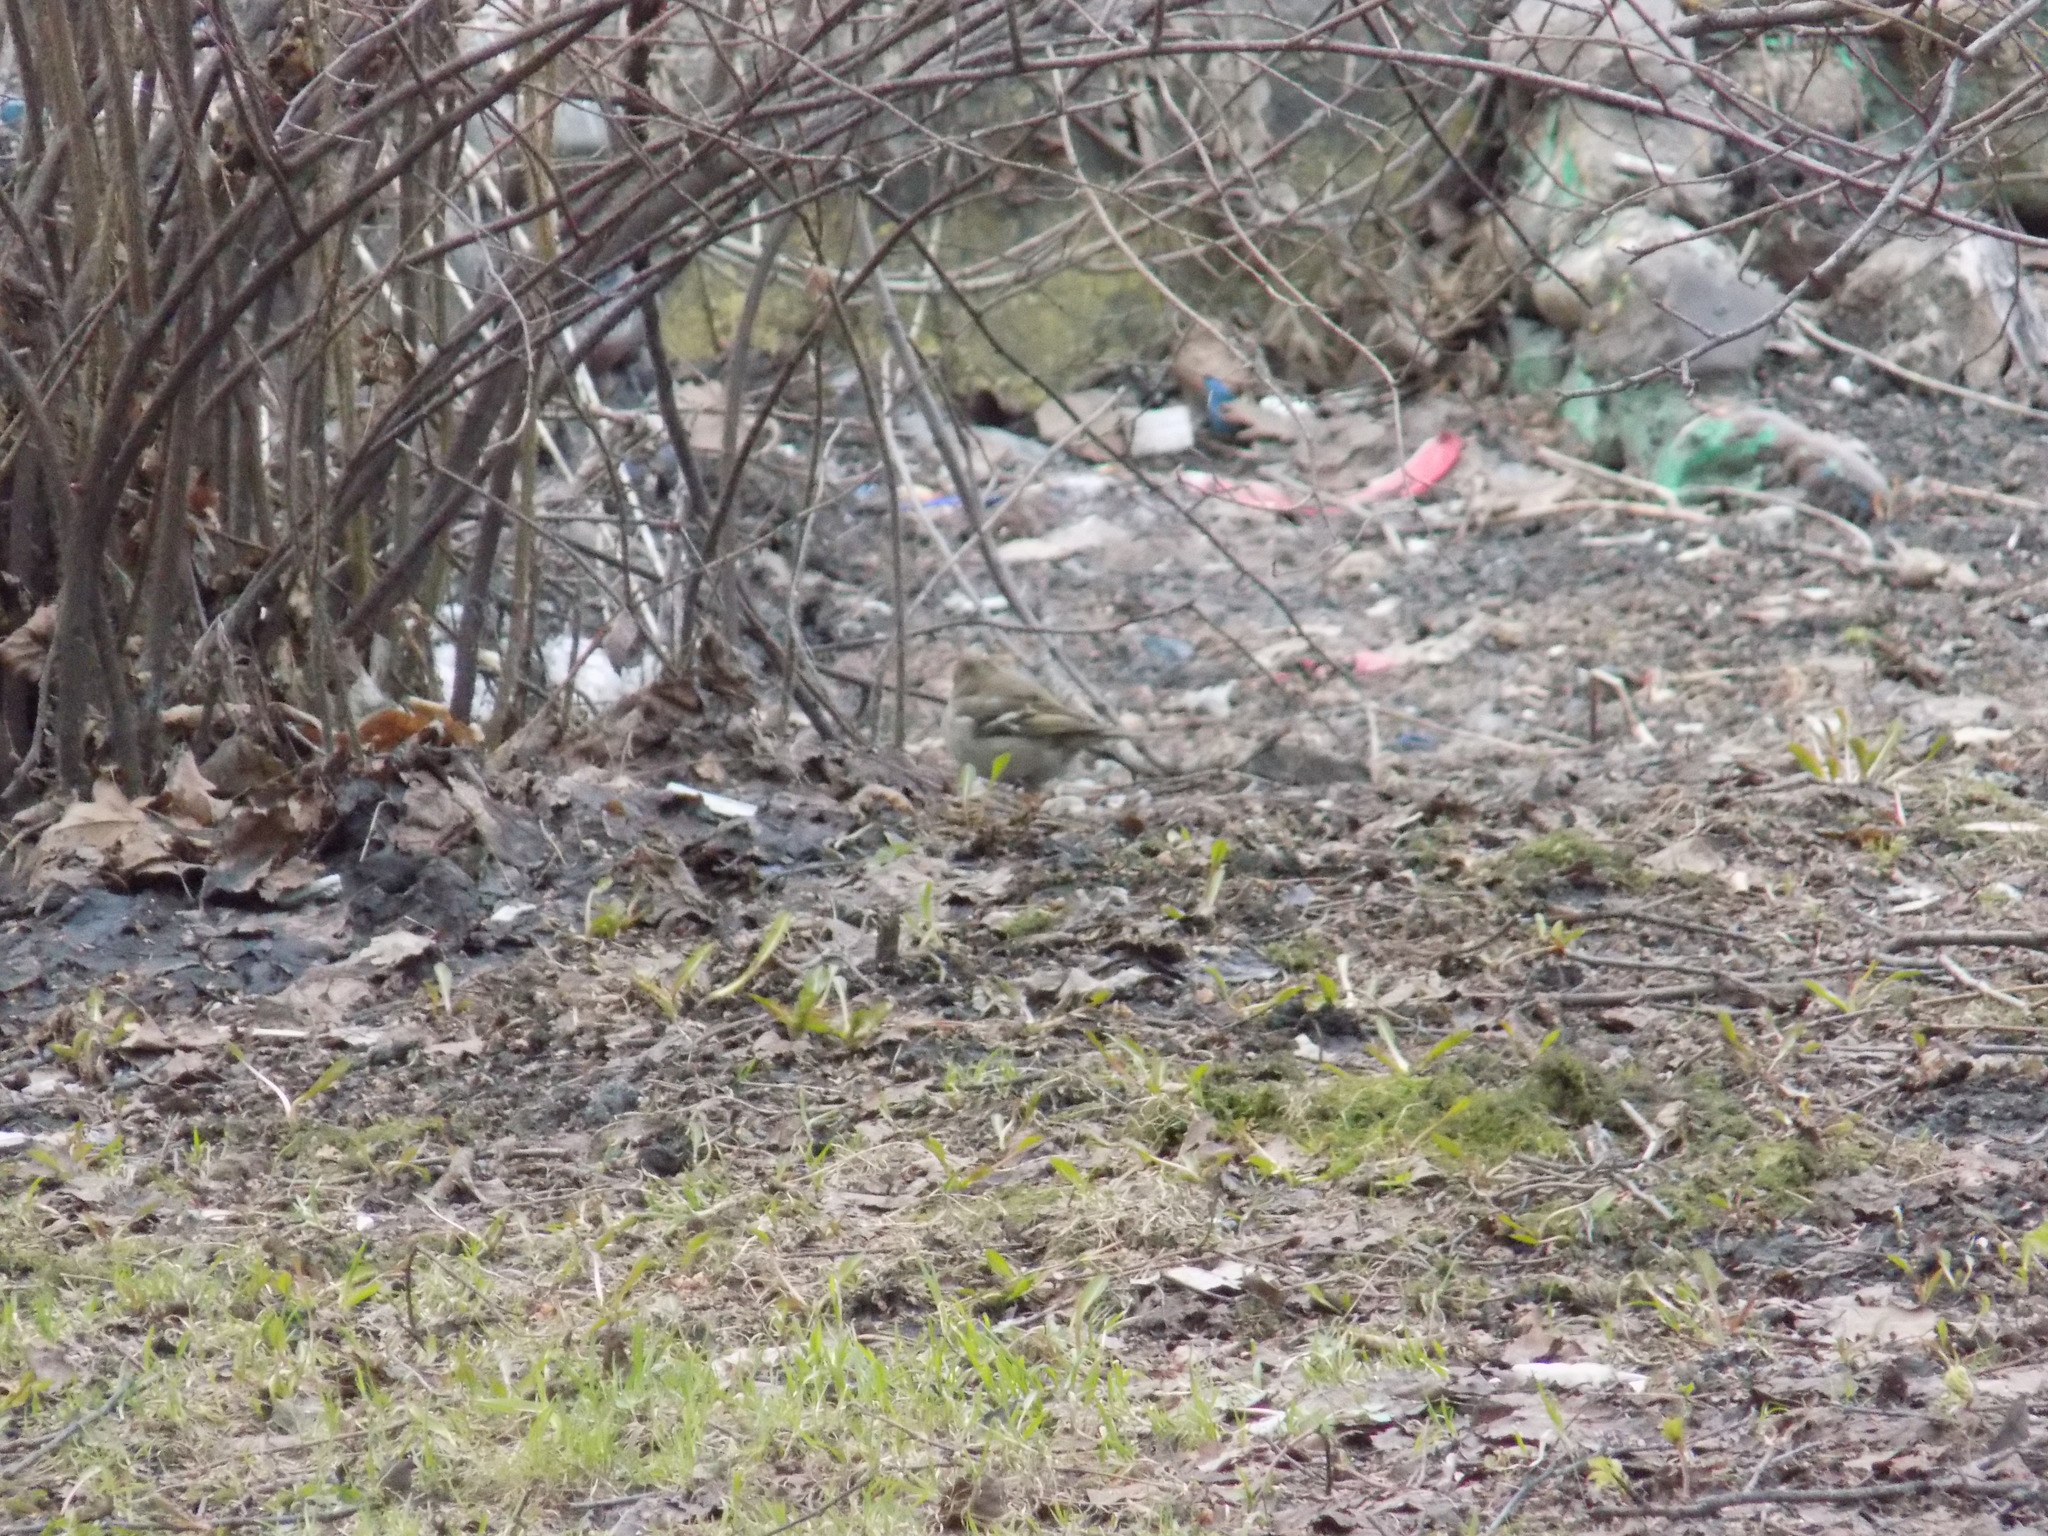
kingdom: Animalia
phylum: Chordata
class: Aves
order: Passeriformes
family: Fringillidae
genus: Fringilla
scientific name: Fringilla coelebs
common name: Common chaffinch
